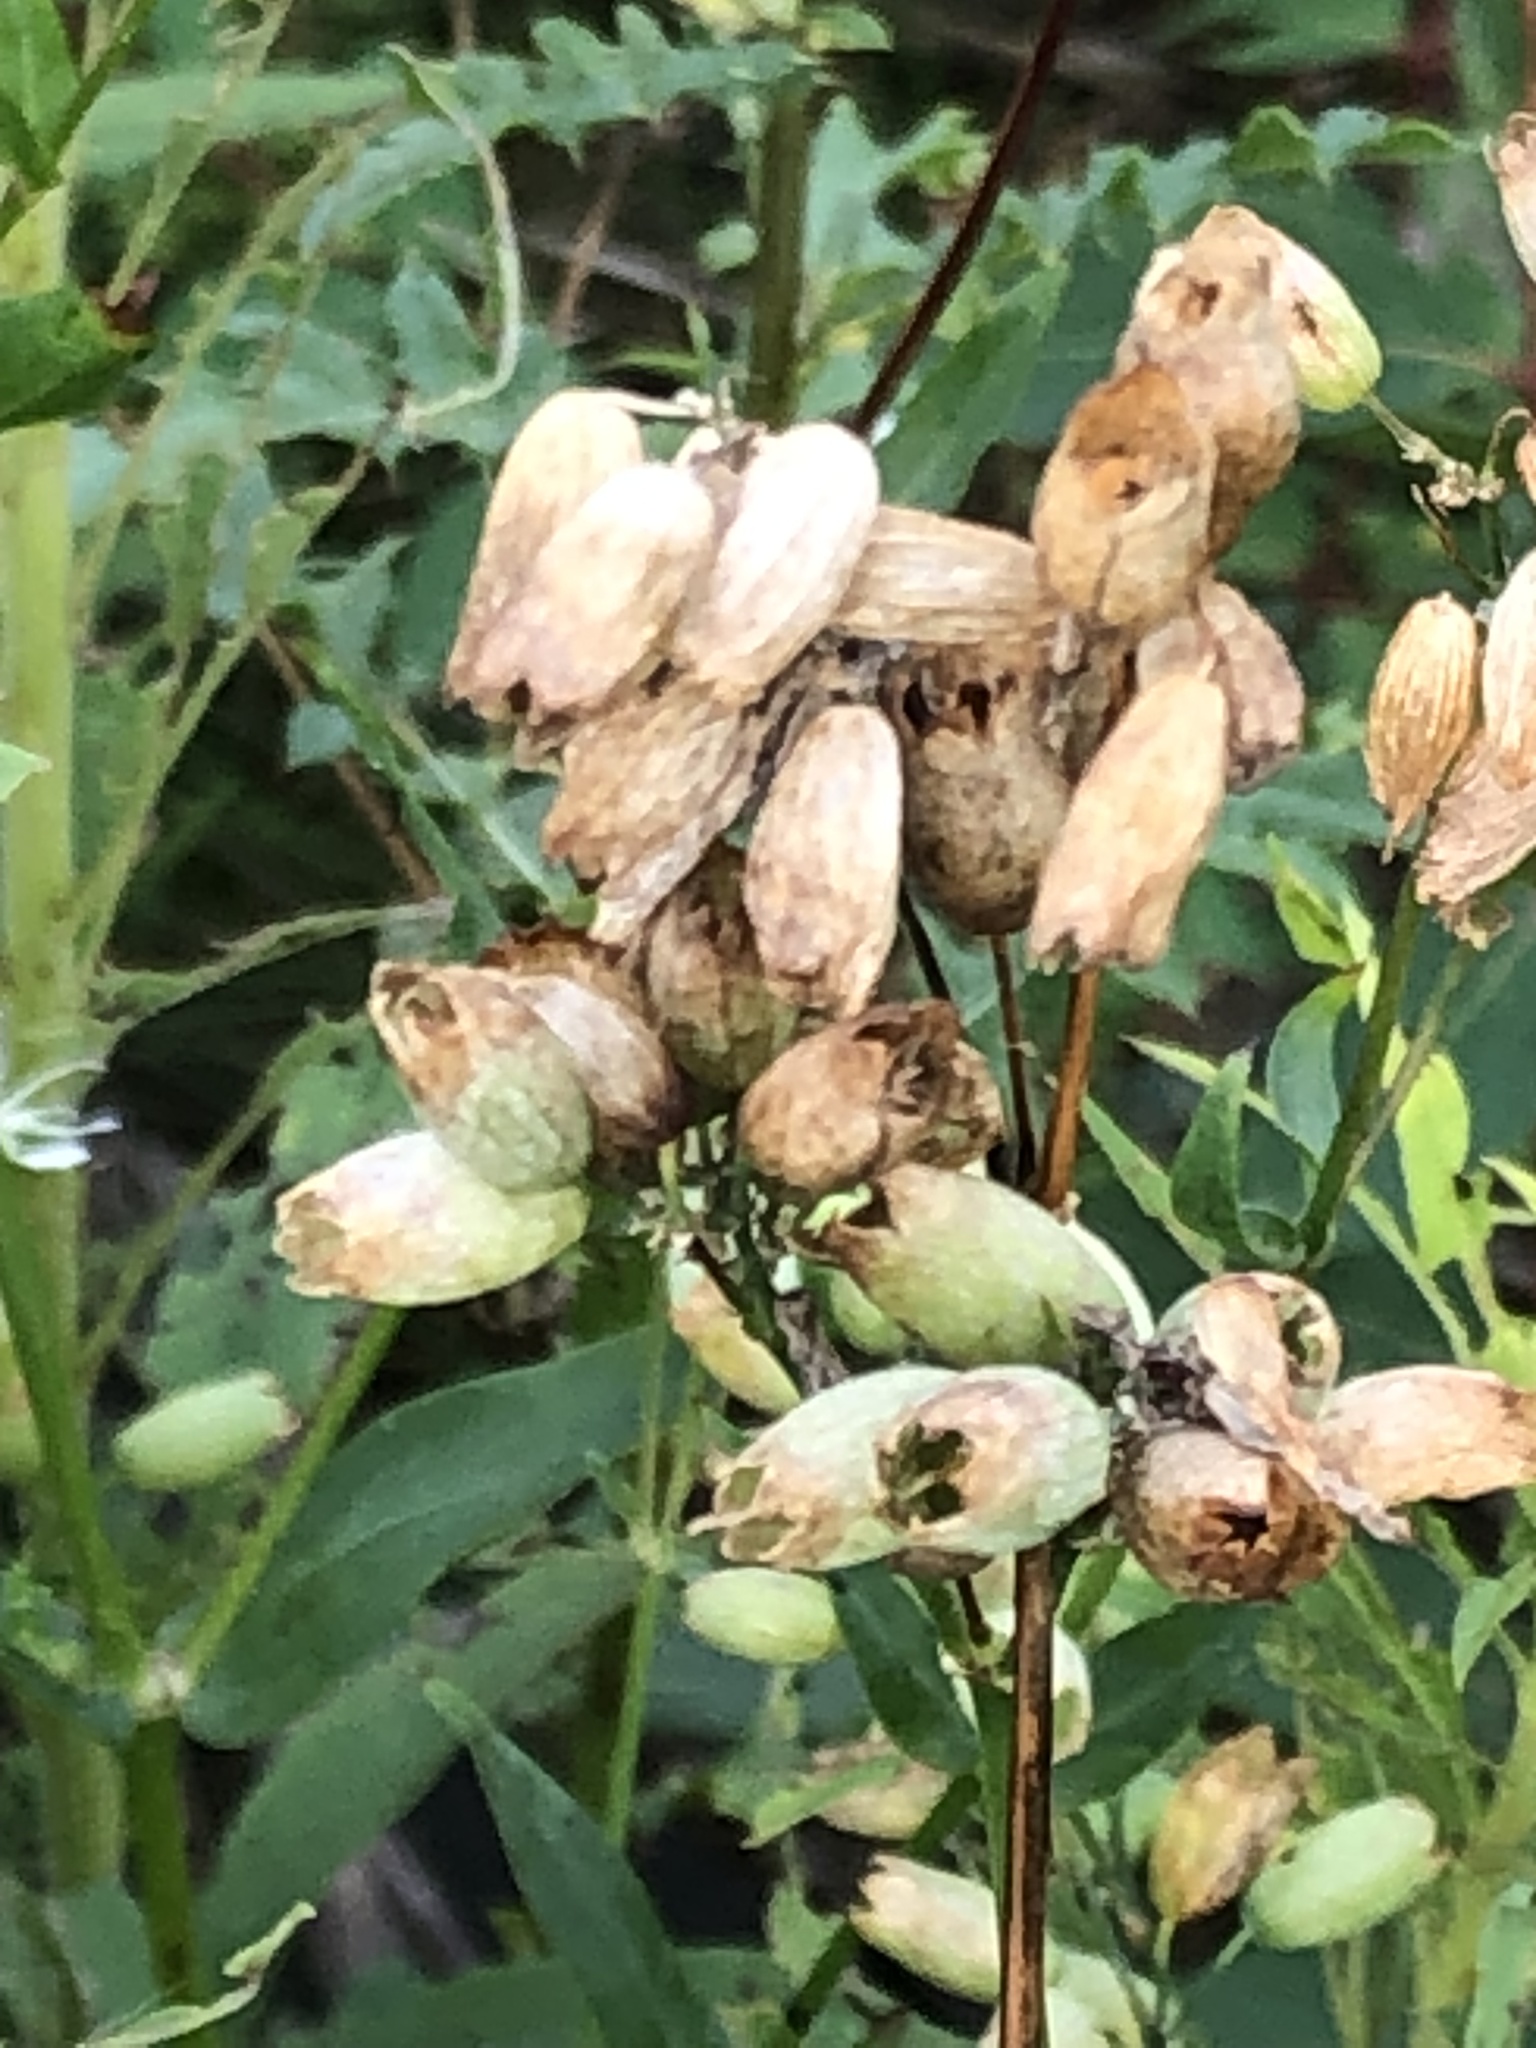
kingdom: Plantae
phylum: Tracheophyta
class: Magnoliopsida
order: Caryophyllales
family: Caryophyllaceae
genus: Silene
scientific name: Silene vulgaris
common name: Bladder campion
